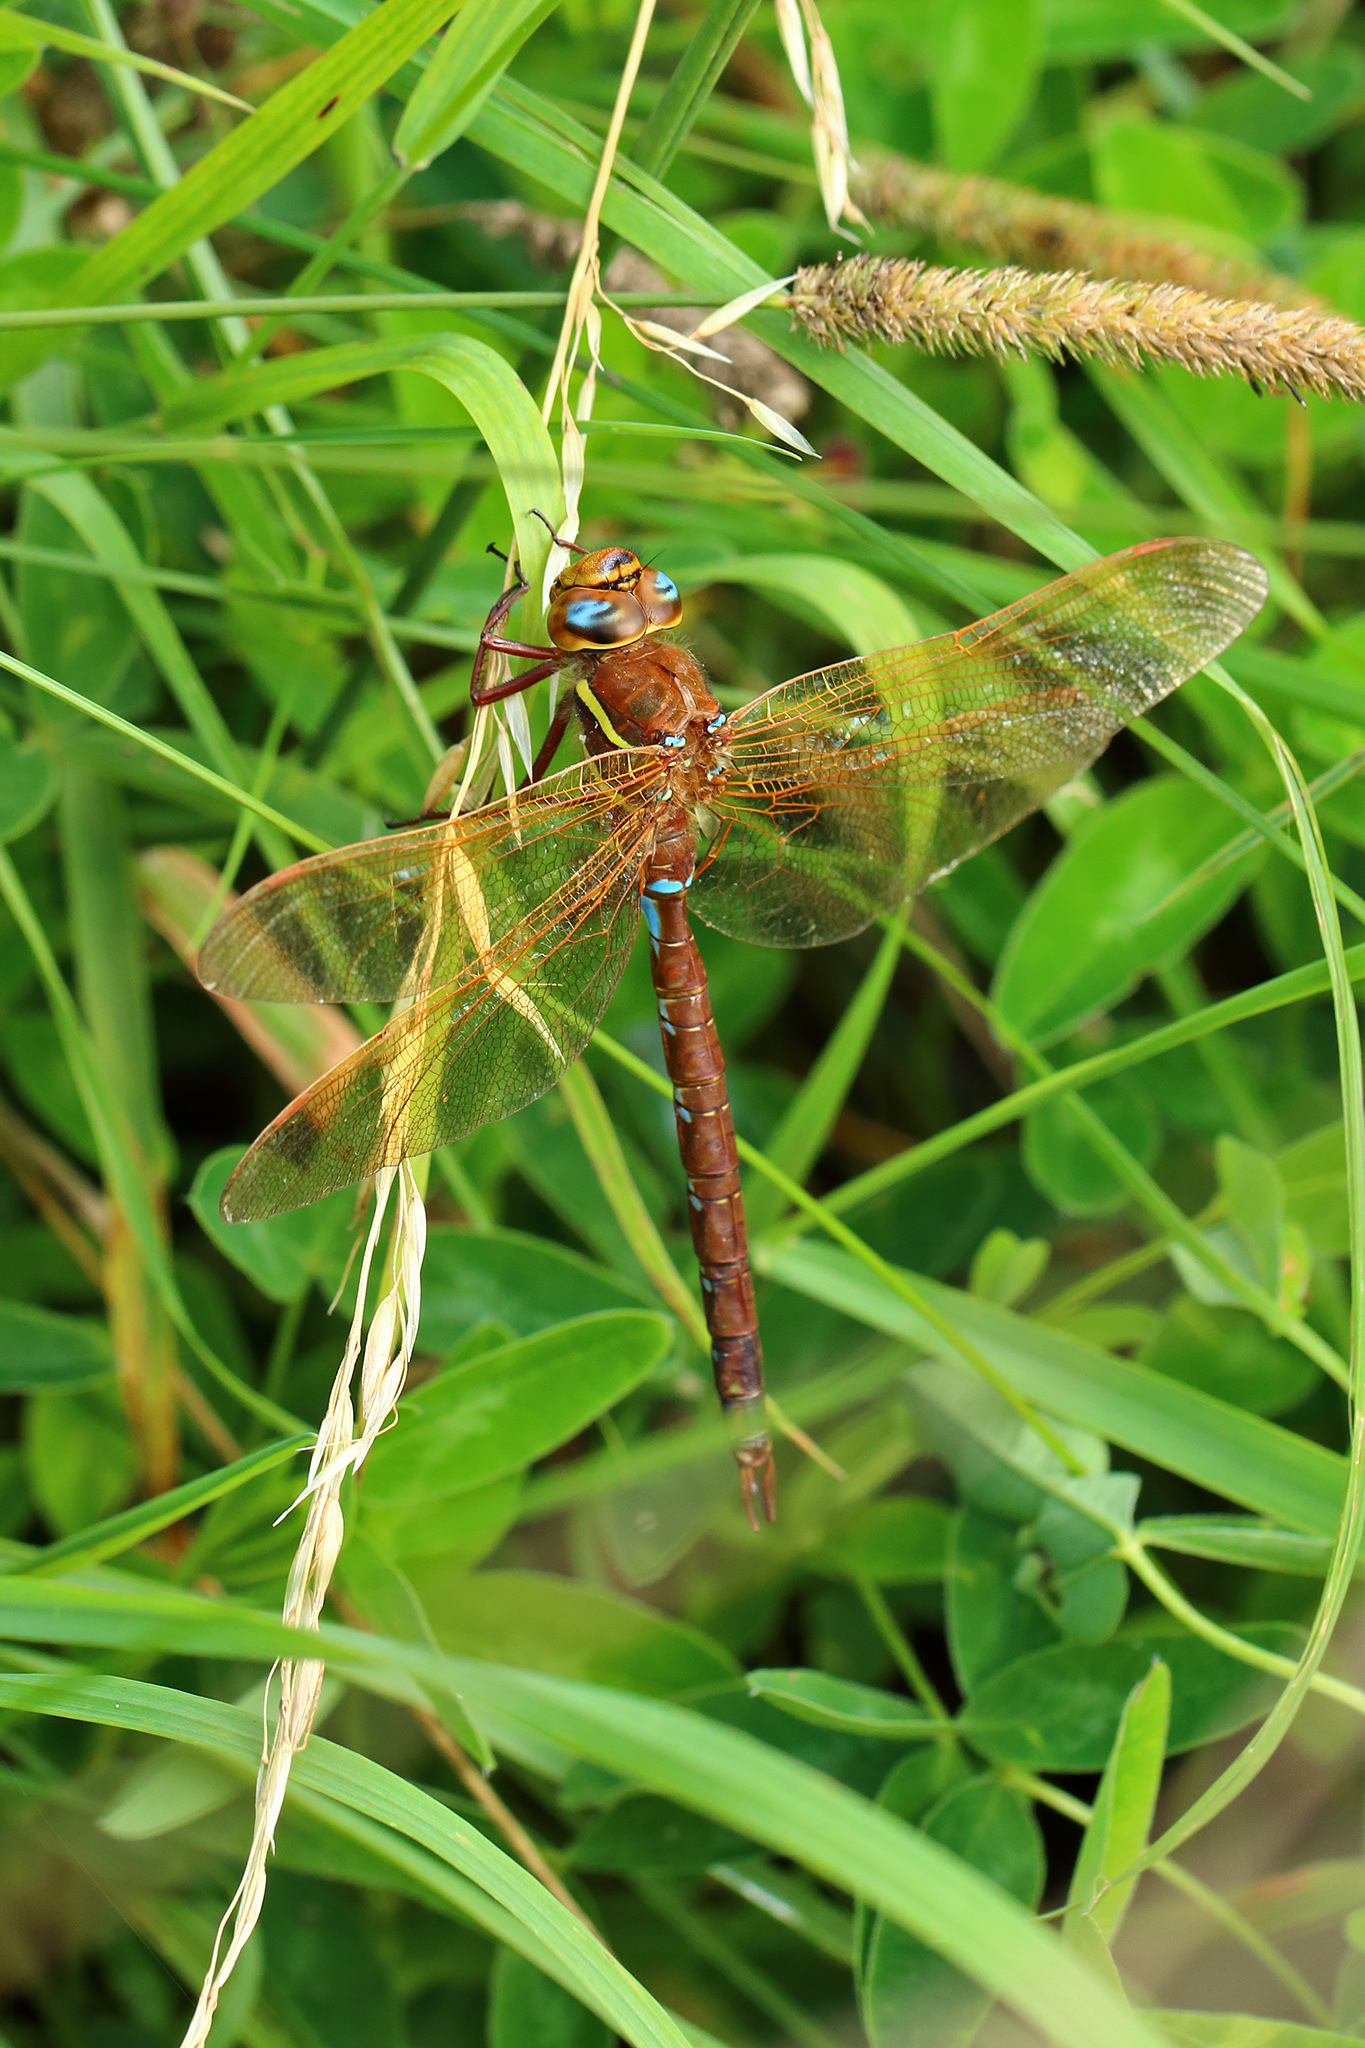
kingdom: Animalia
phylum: Arthropoda
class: Insecta
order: Odonata
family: Aeshnidae
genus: Aeshna
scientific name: Aeshna grandis
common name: Brown hawker
